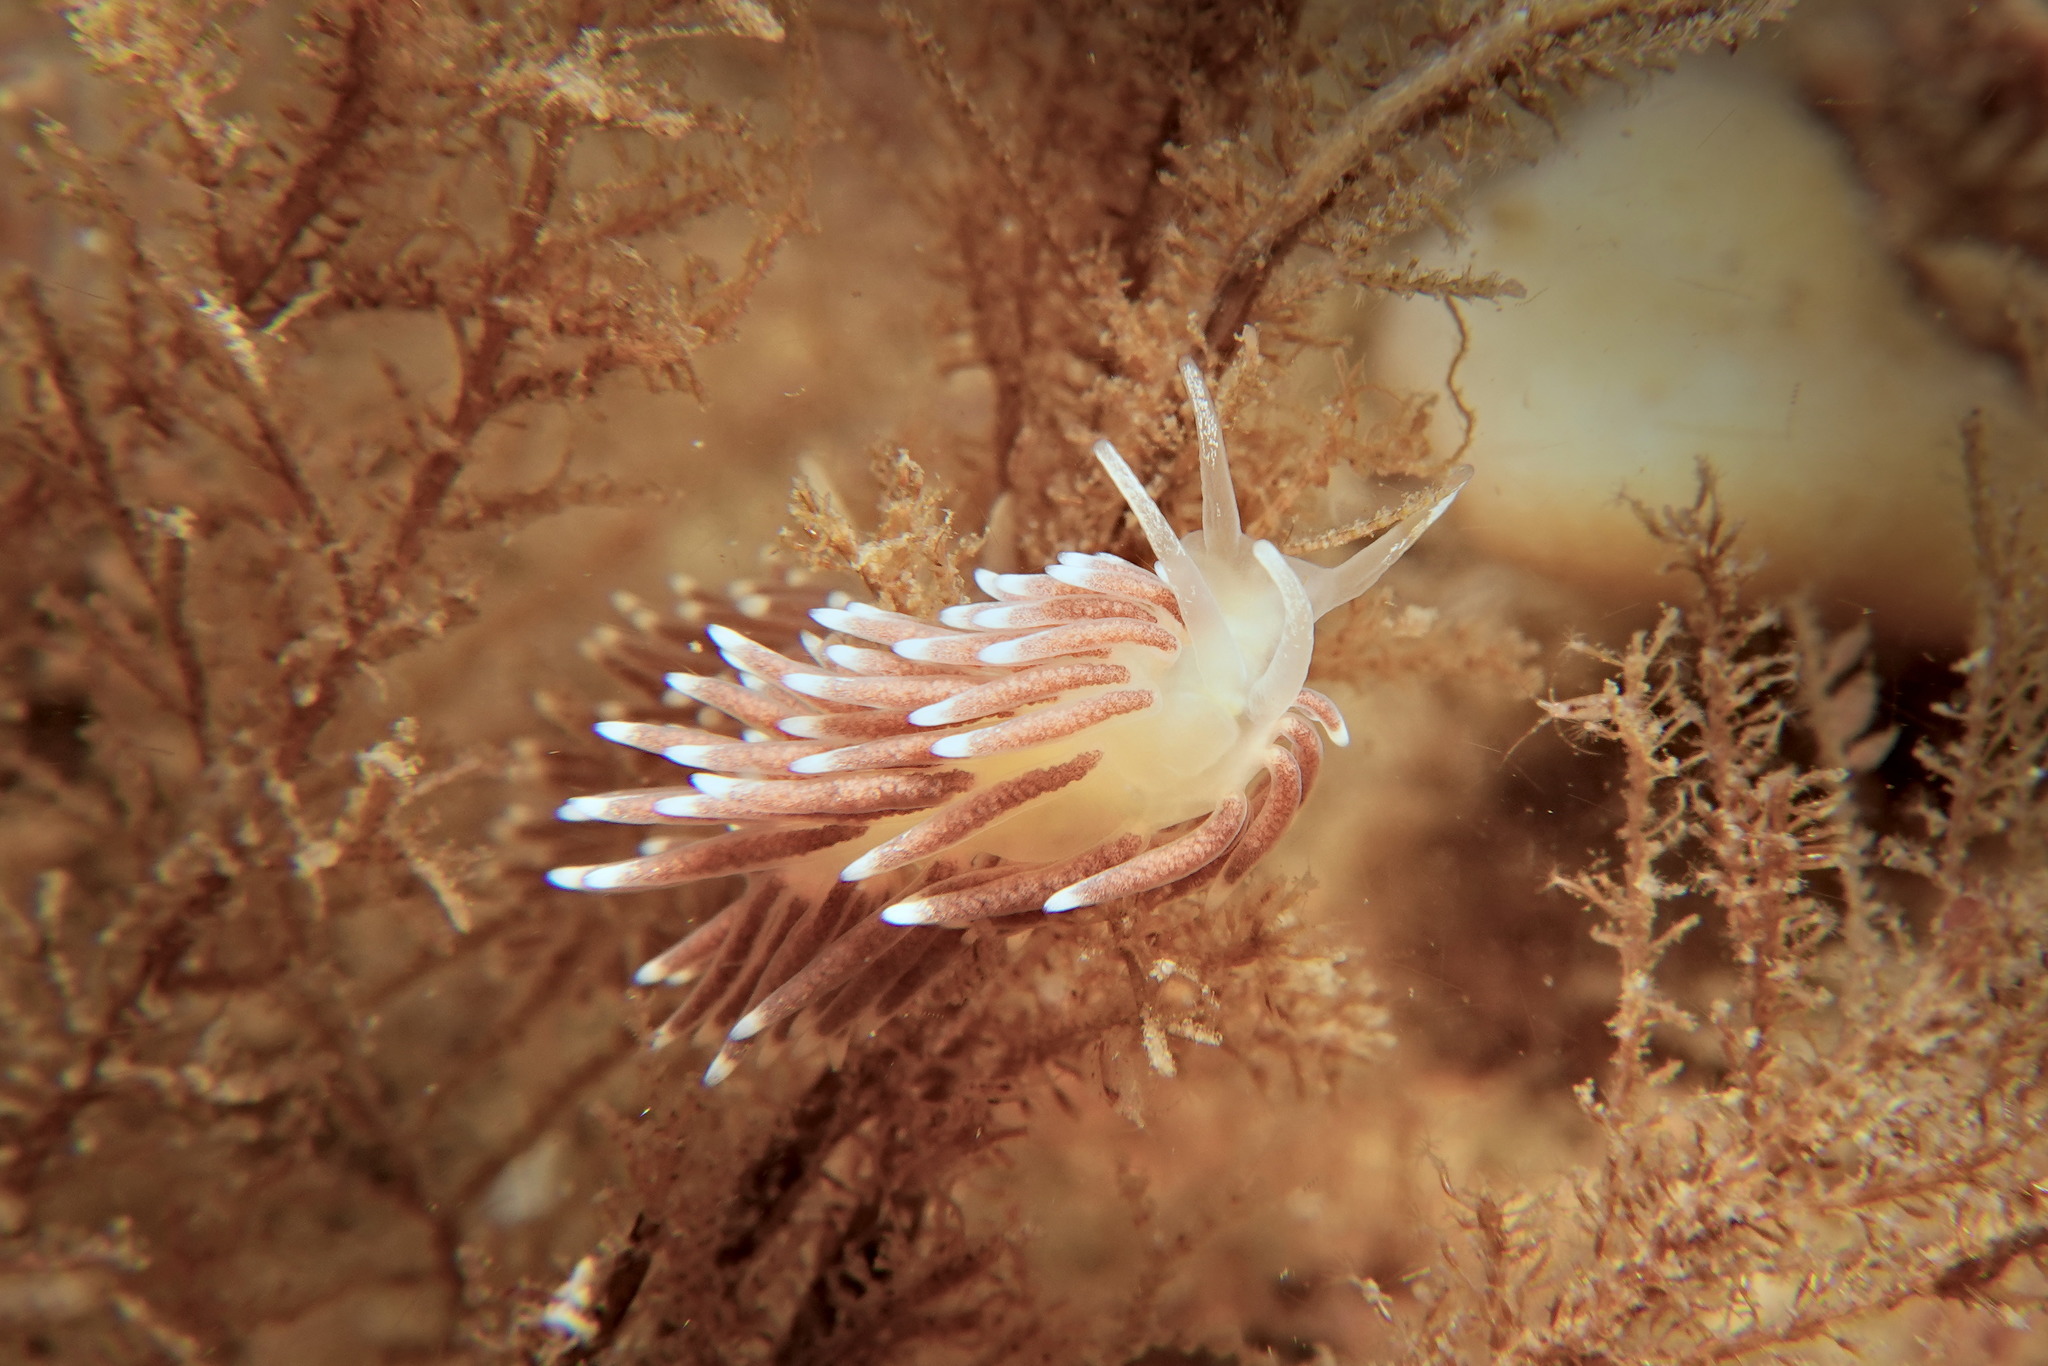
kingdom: Animalia
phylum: Mollusca
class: Gastropoda
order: Nudibranchia
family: Cuthonellidae
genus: Cuthonella
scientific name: Cuthonella concinna
